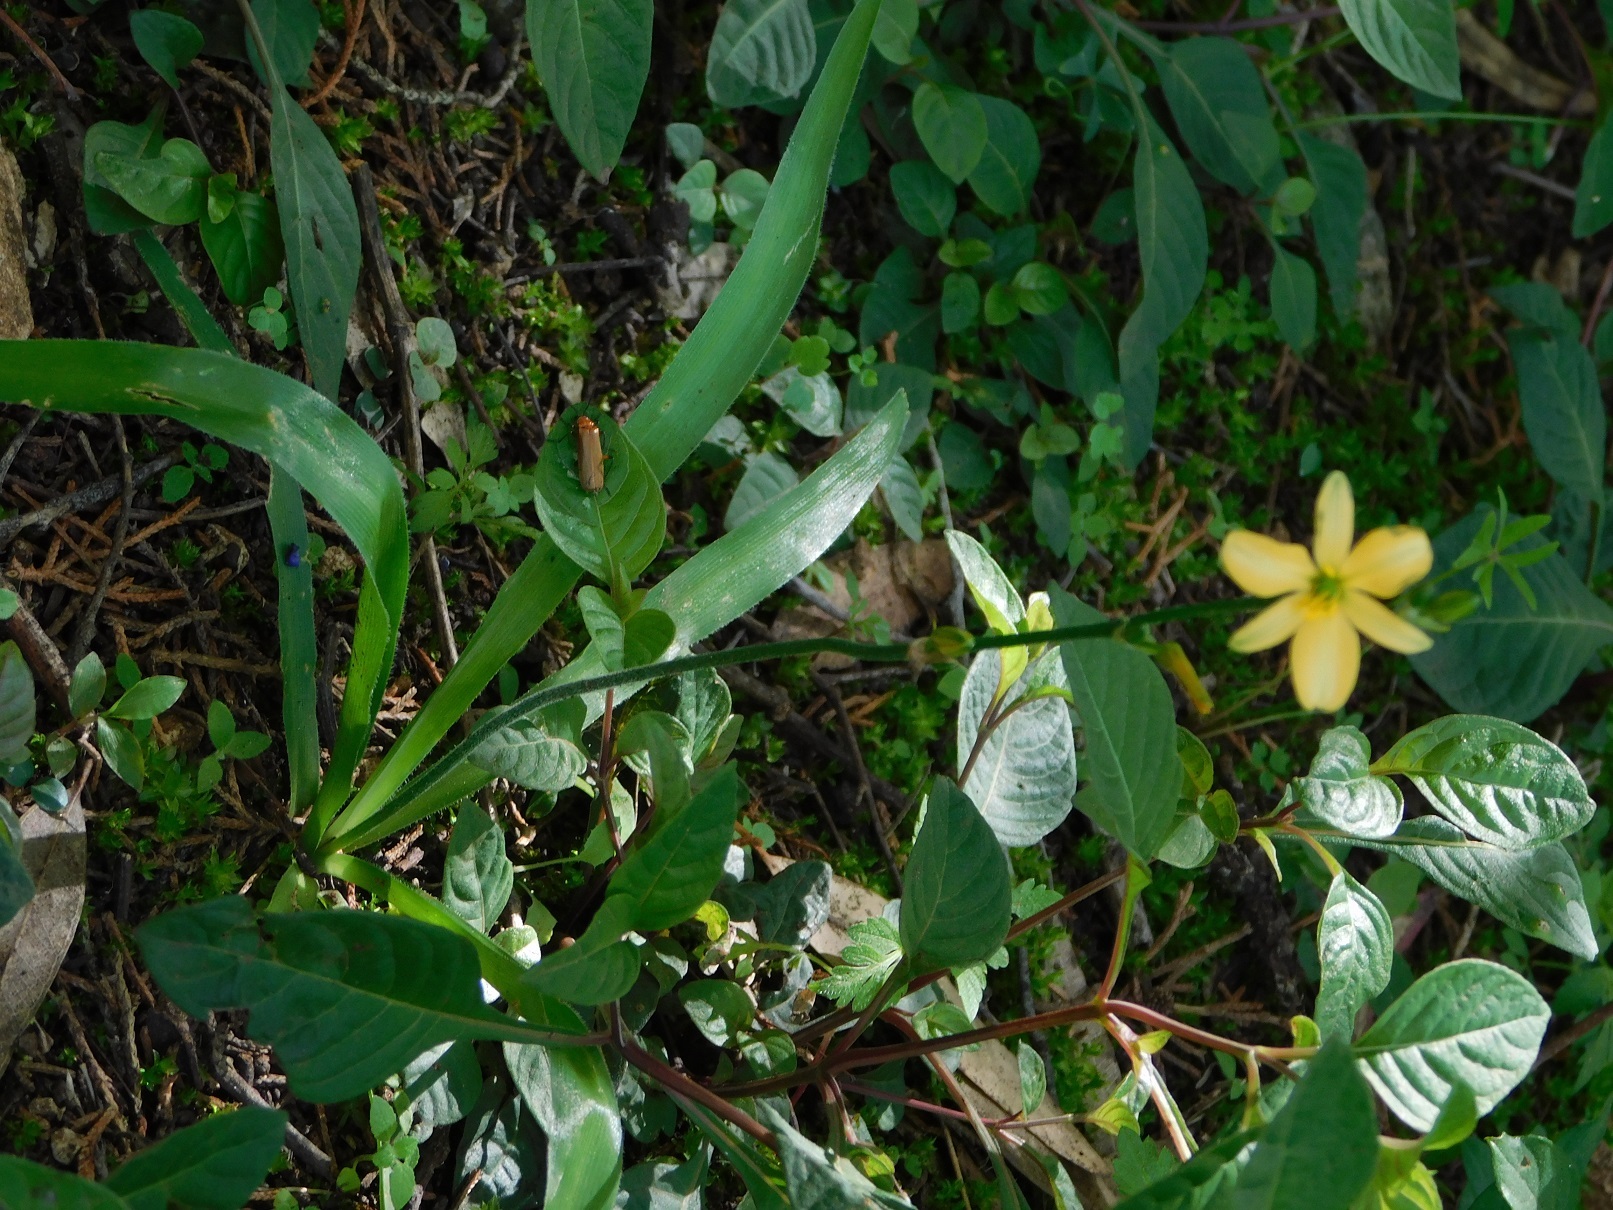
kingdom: Plantae
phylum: Tracheophyta
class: Liliopsida
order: Asparagales
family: Asparagaceae
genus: Echeandia
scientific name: Echeandia skinneri
